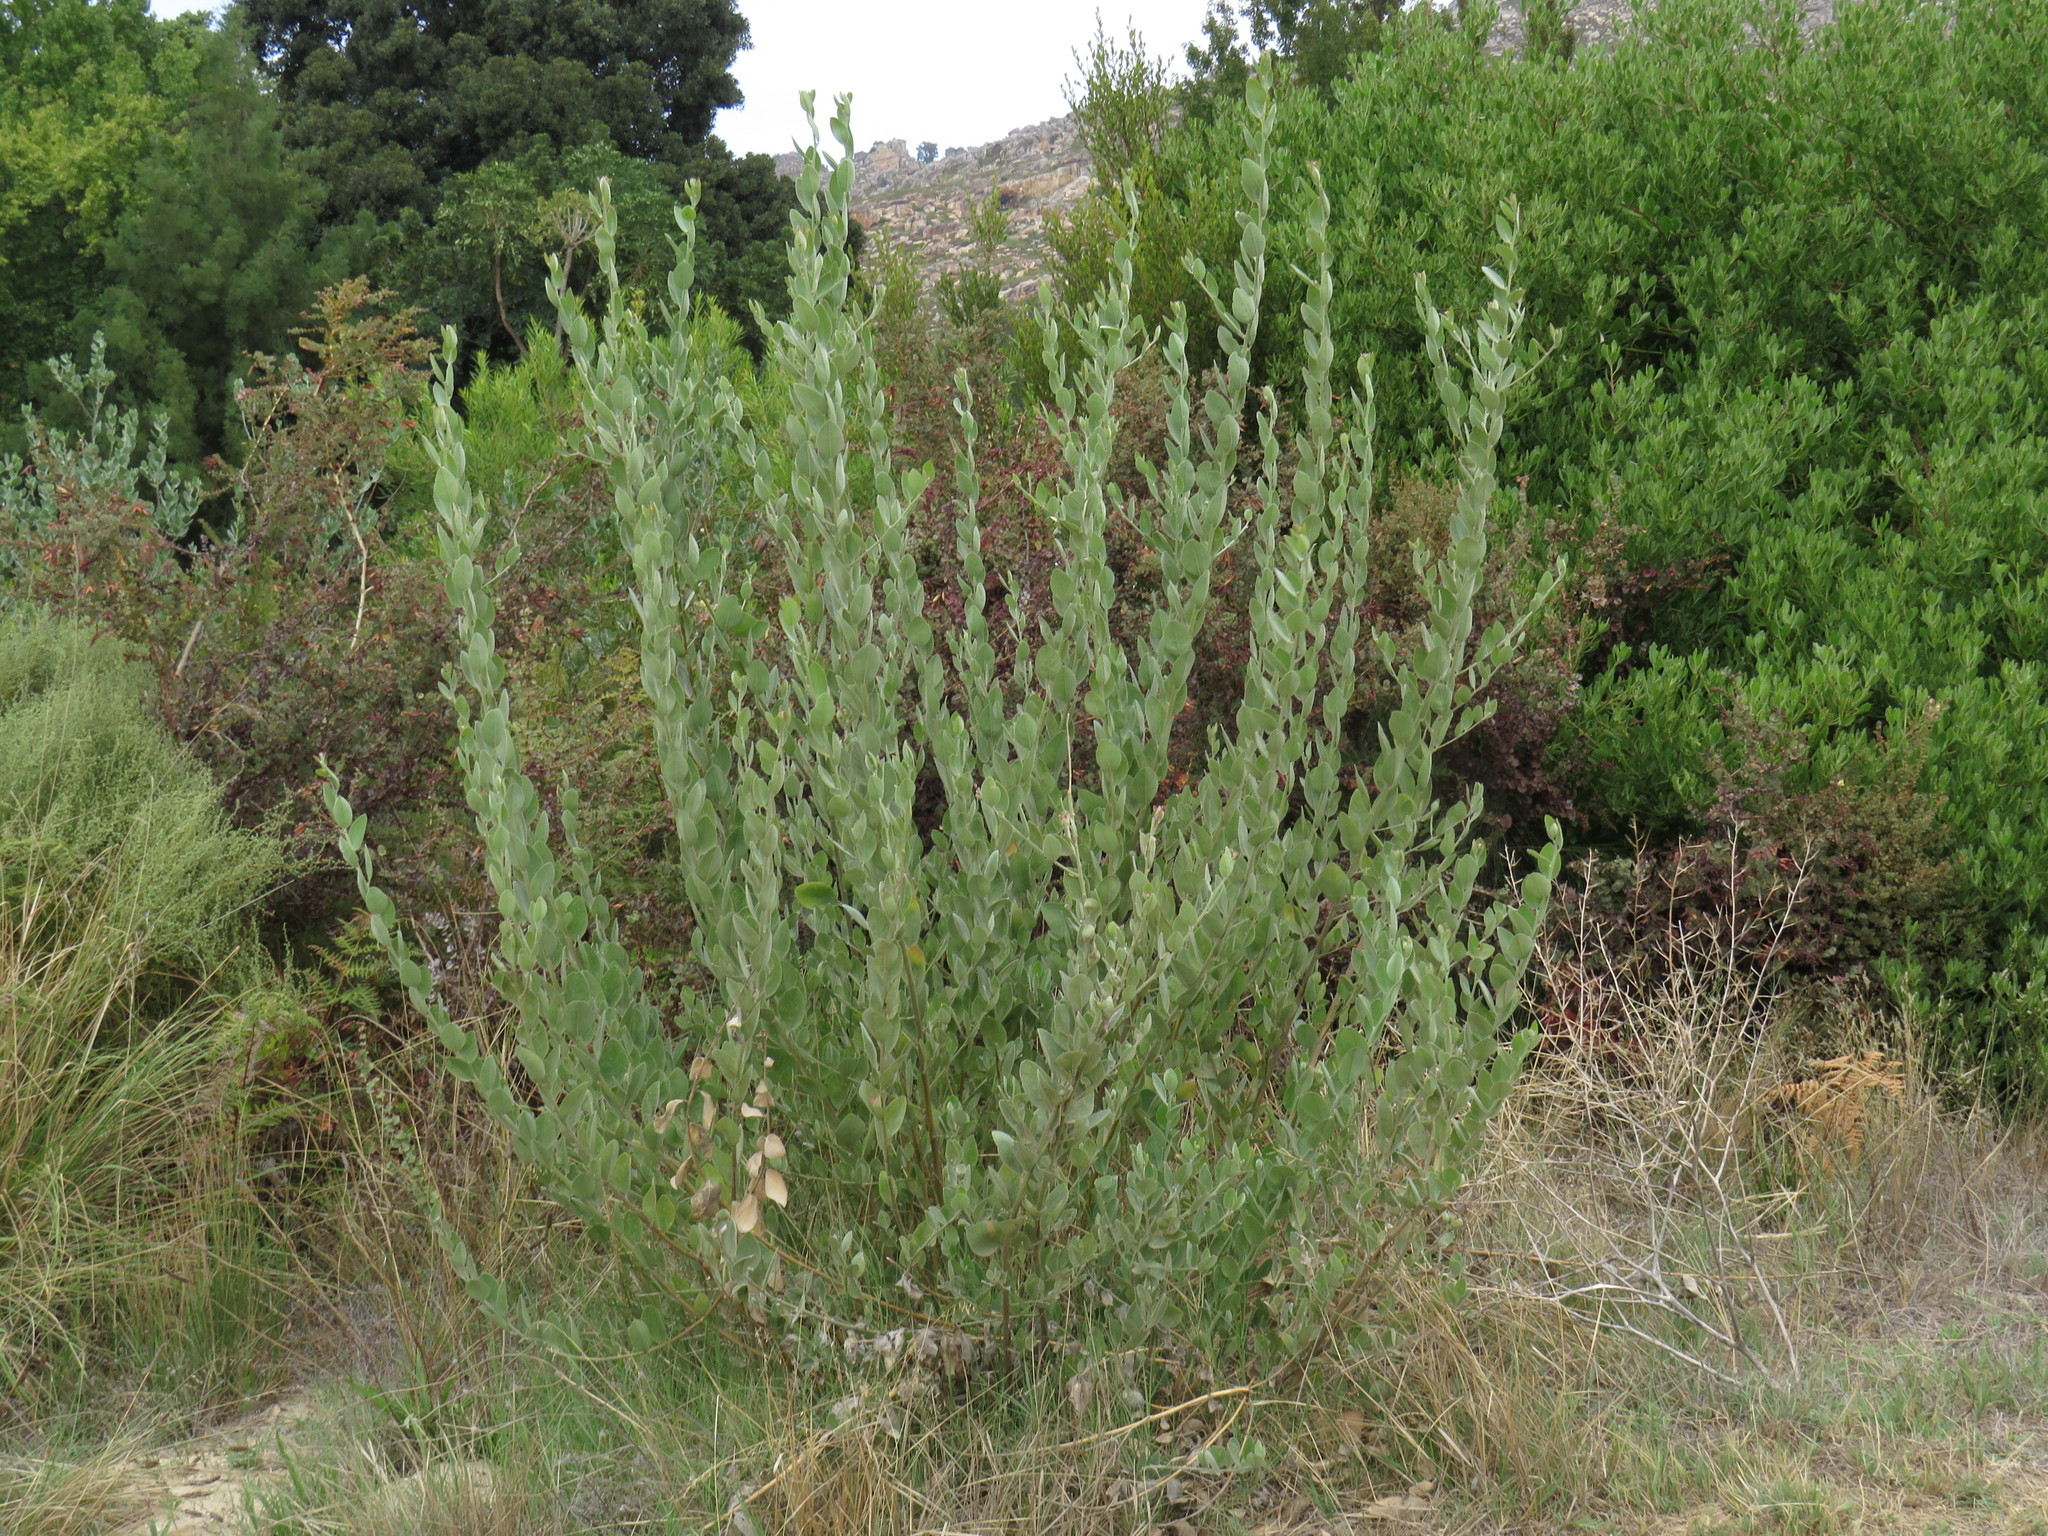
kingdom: Plantae
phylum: Tracheophyta
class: Magnoliopsida
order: Fabales
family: Fabaceae
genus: Podalyria
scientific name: Podalyria amoena
